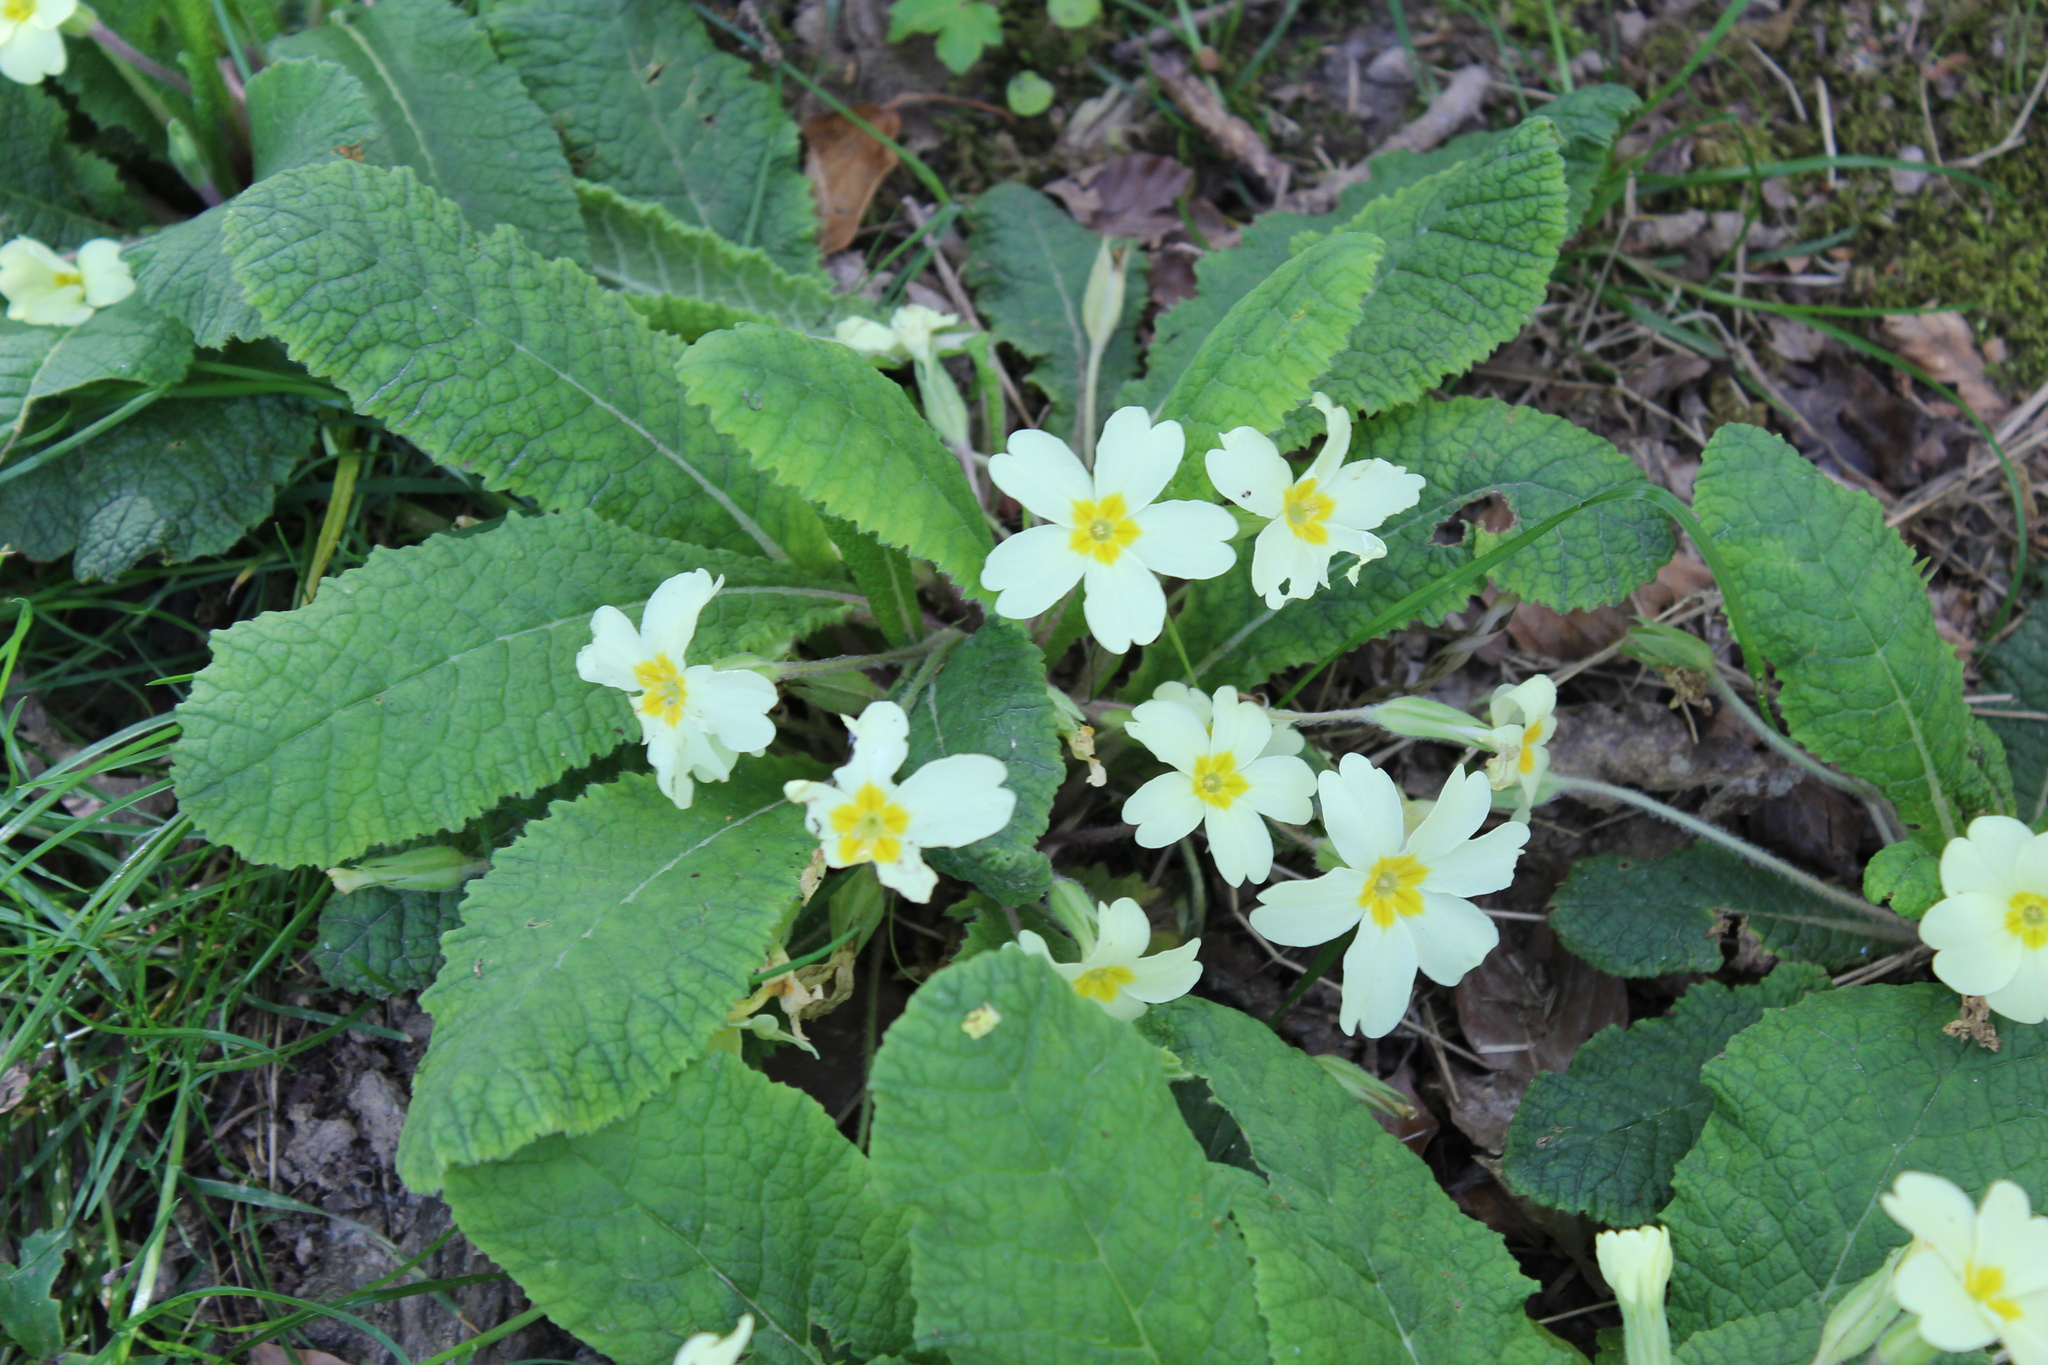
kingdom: Plantae
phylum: Tracheophyta
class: Magnoliopsida
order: Ericales
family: Primulaceae
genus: Primula
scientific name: Primula vulgaris
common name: Primrose
